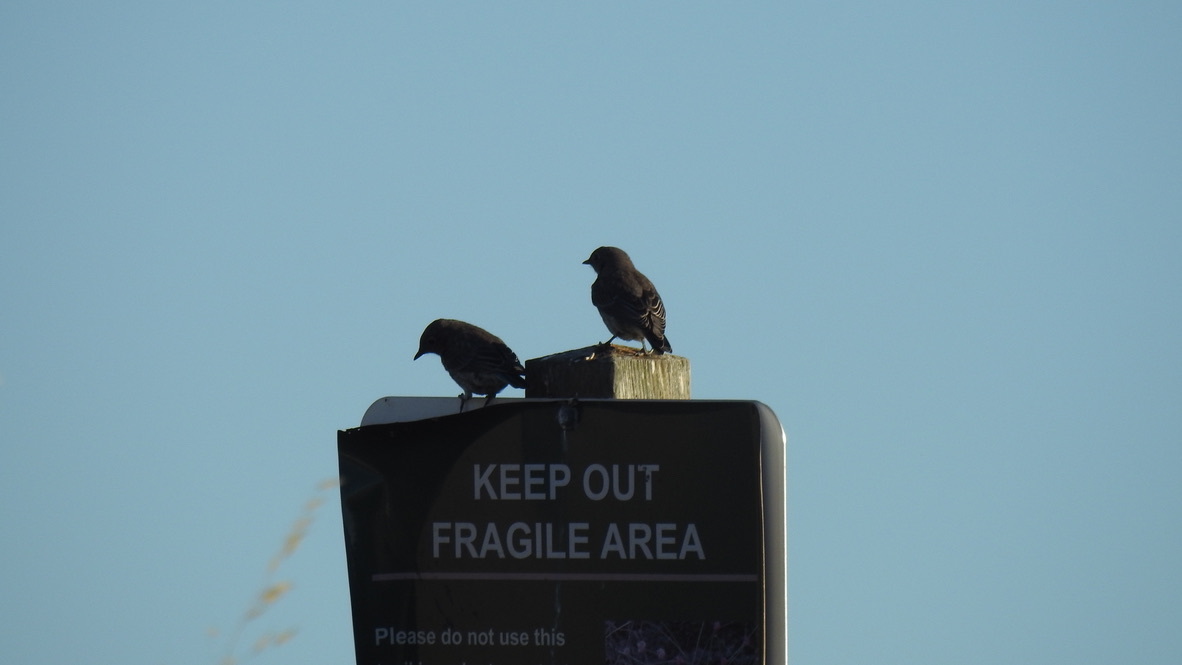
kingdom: Animalia
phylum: Chordata
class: Aves
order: Passeriformes
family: Turdidae
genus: Sialia
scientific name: Sialia mexicana
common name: Western bluebird
